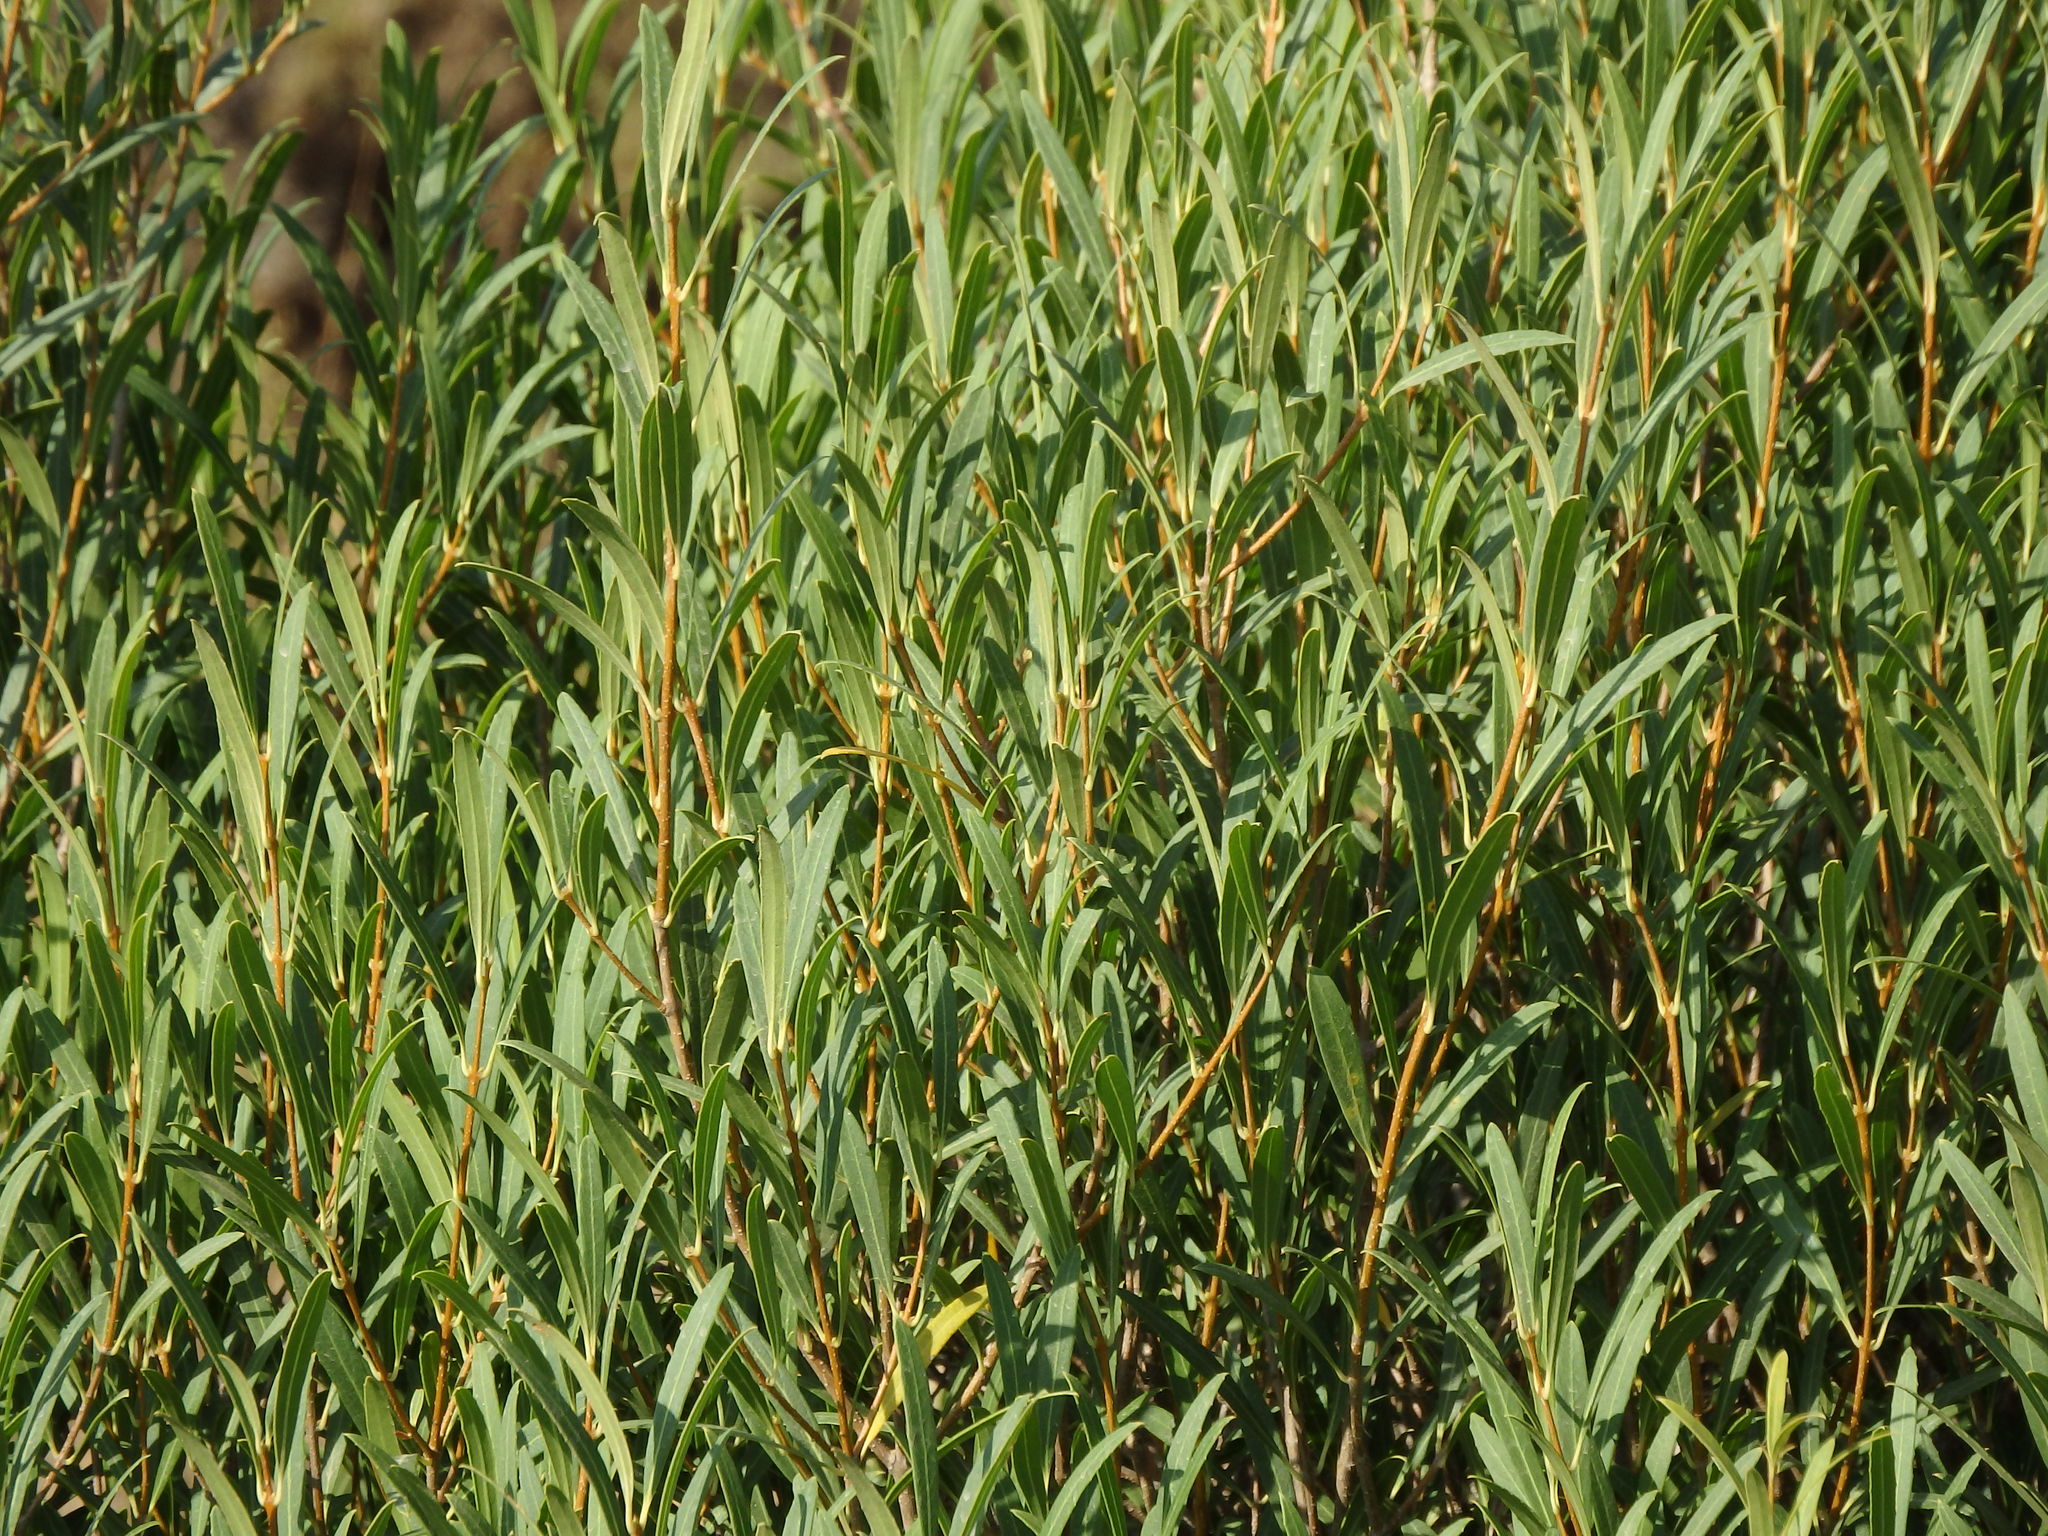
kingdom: Plantae
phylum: Tracheophyta
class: Magnoliopsida
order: Lamiales
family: Oleaceae
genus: Phillyrea
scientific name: Phillyrea angustifolia
